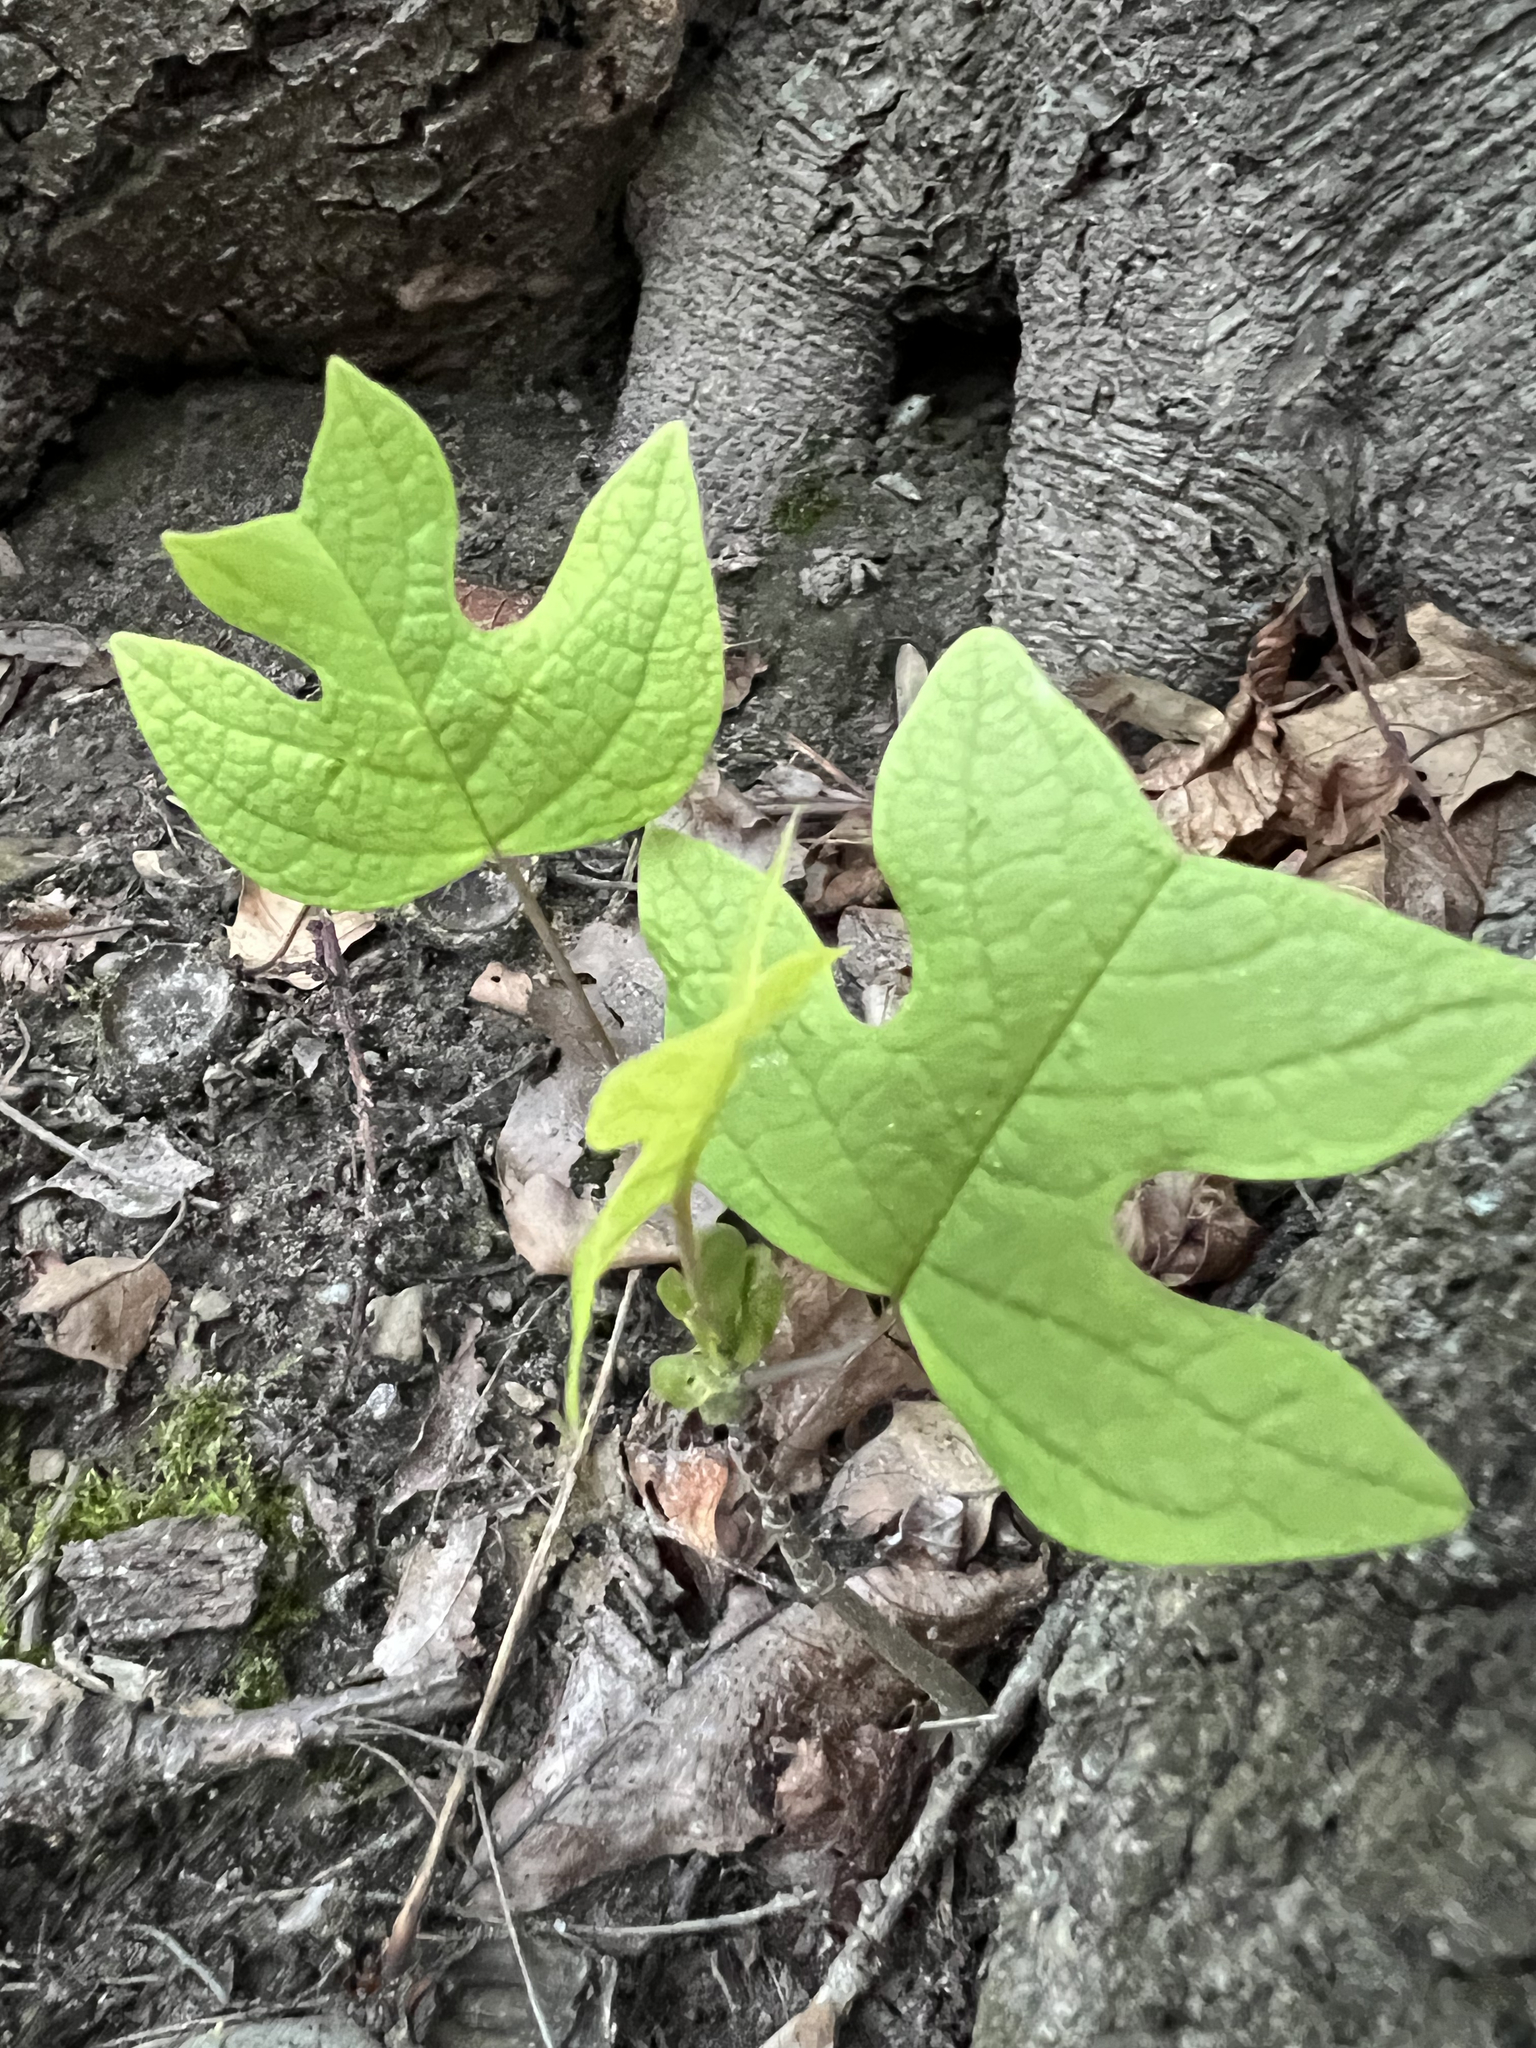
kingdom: Plantae
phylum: Tracheophyta
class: Magnoliopsida
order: Magnoliales
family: Magnoliaceae
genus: Liriodendron
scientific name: Liriodendron tulipifera
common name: Tulip tree
